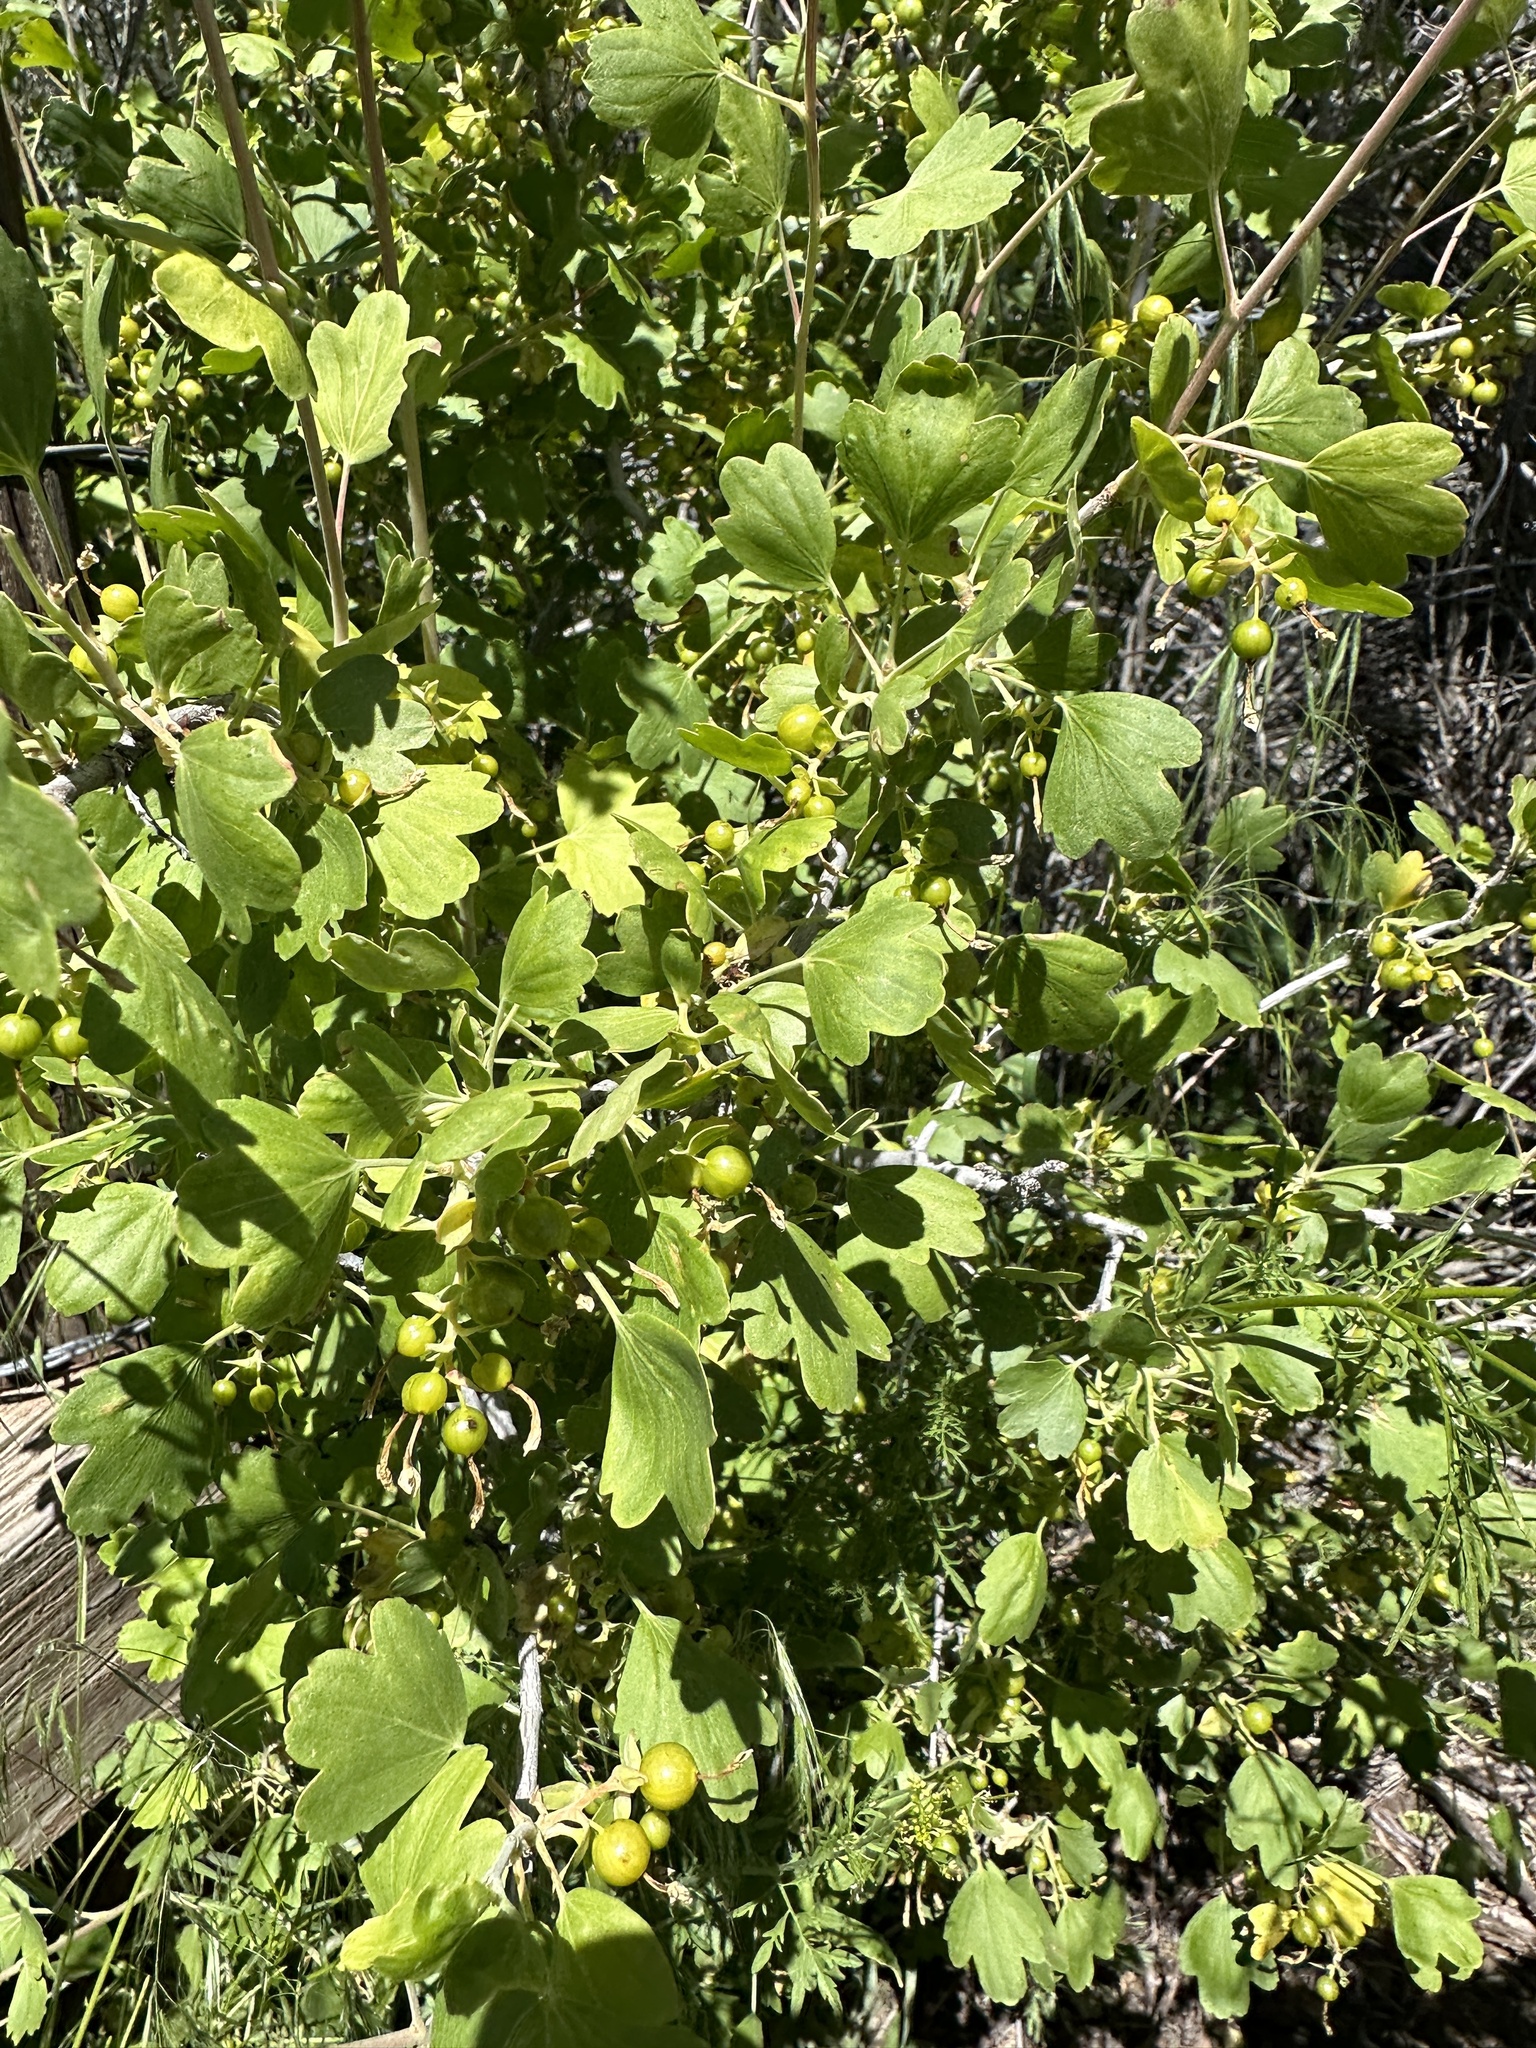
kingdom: Plantae
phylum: Tracheophyta
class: Magnoliopsida
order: Saxifragales
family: Grossulariaceae
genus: Ribes
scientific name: Ribes aureum
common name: Golden currant
